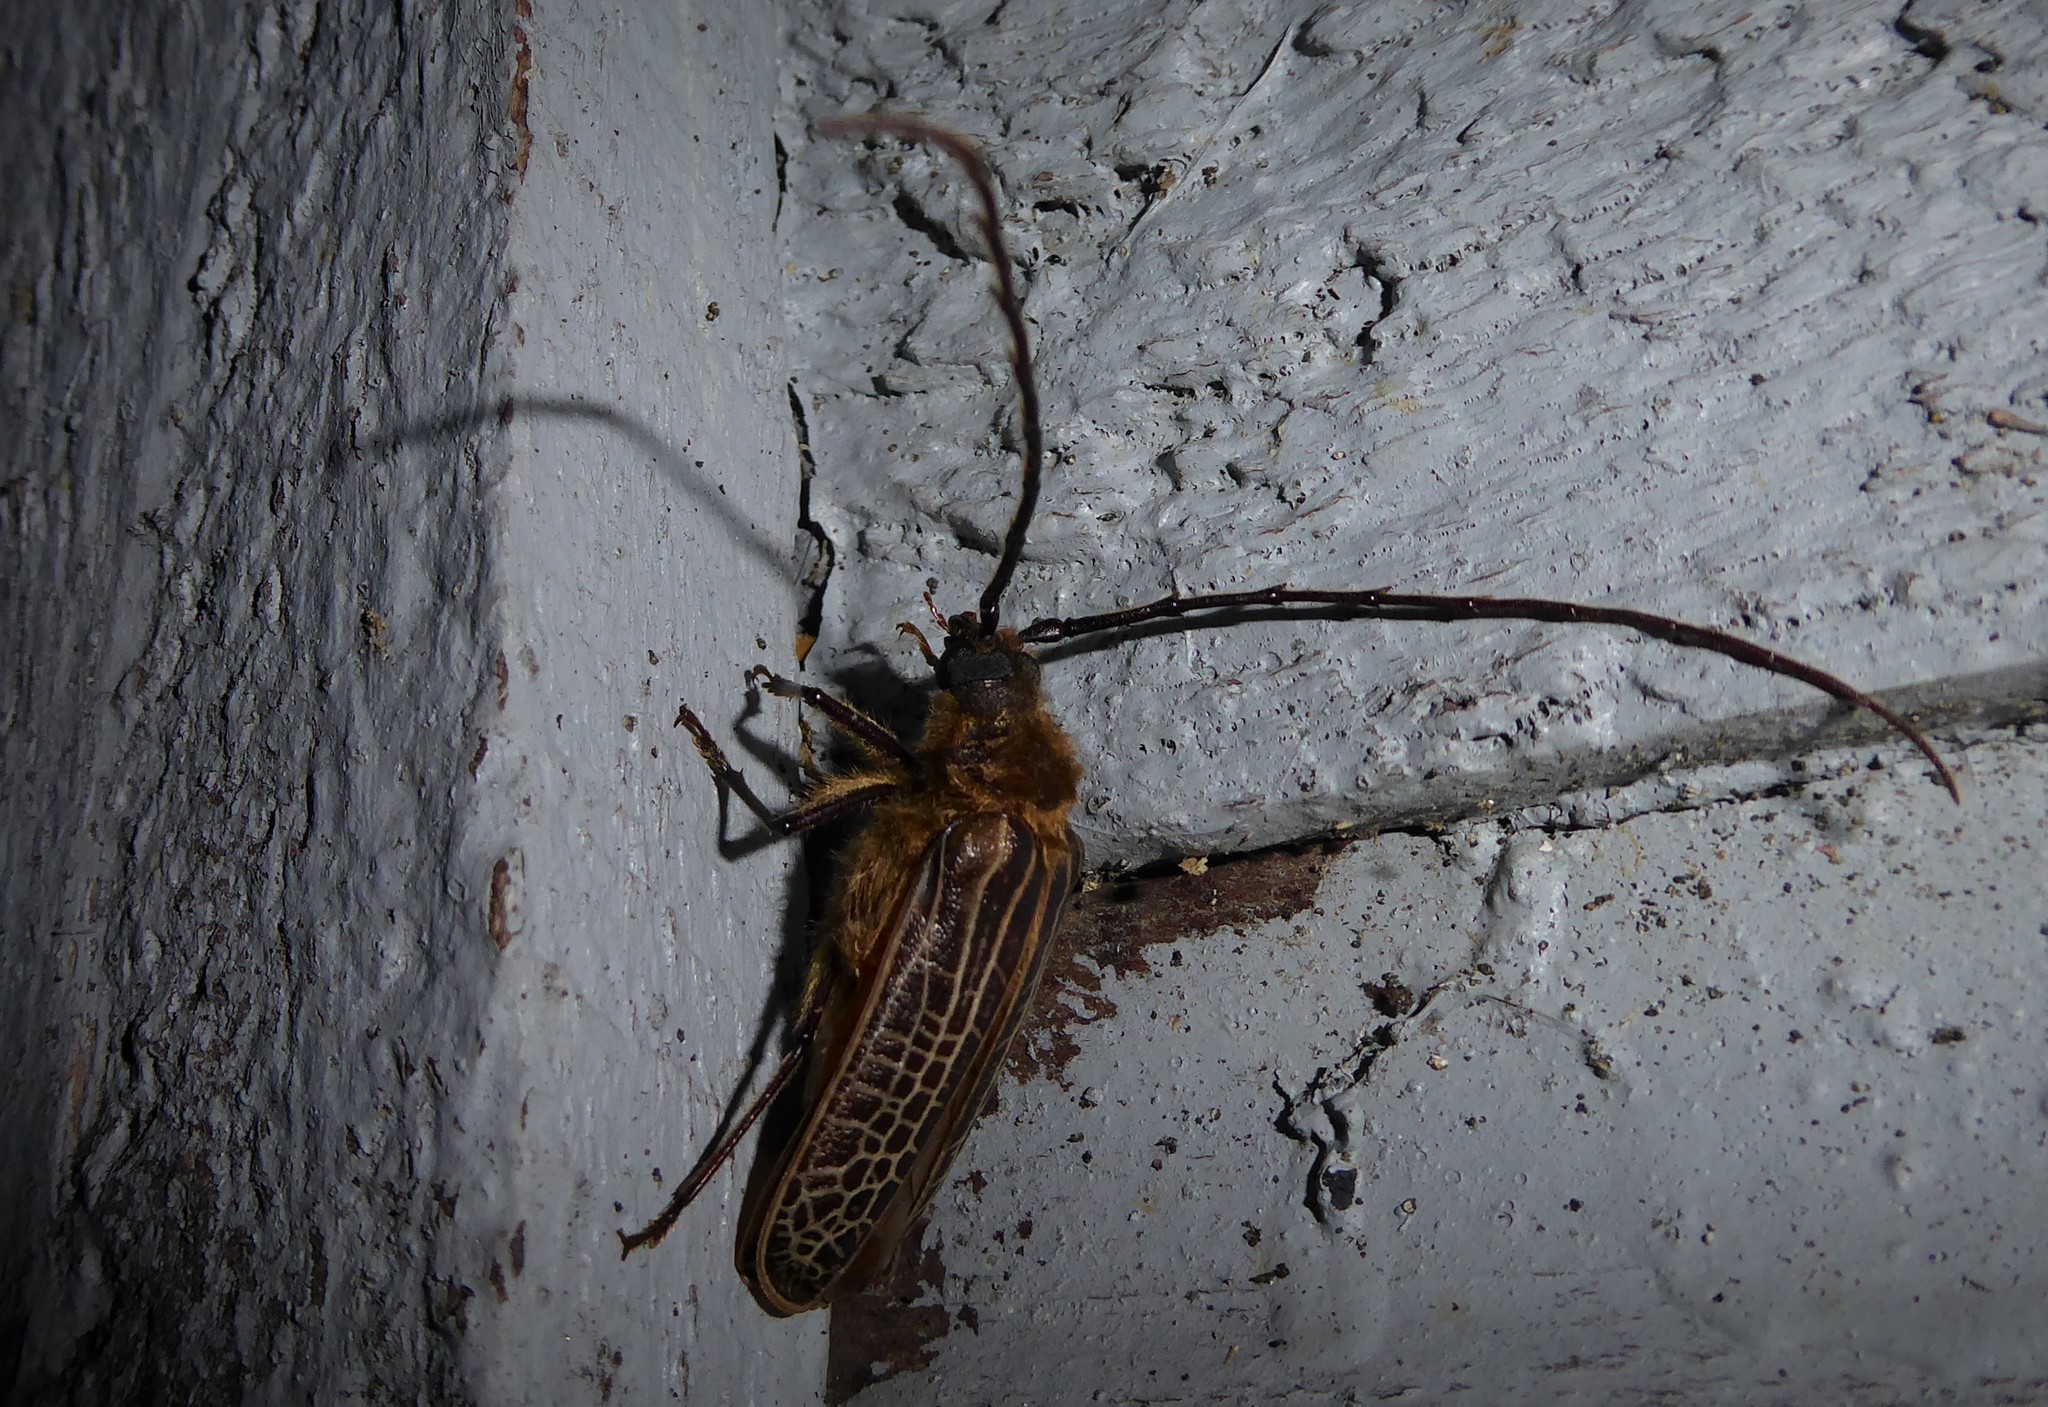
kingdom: Animalia
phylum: Arthropoda
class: Insecta
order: Coleoptera
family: Cerambycidae
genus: Prionoplus
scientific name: Prionoplus reticularis
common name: Huhu beetle
